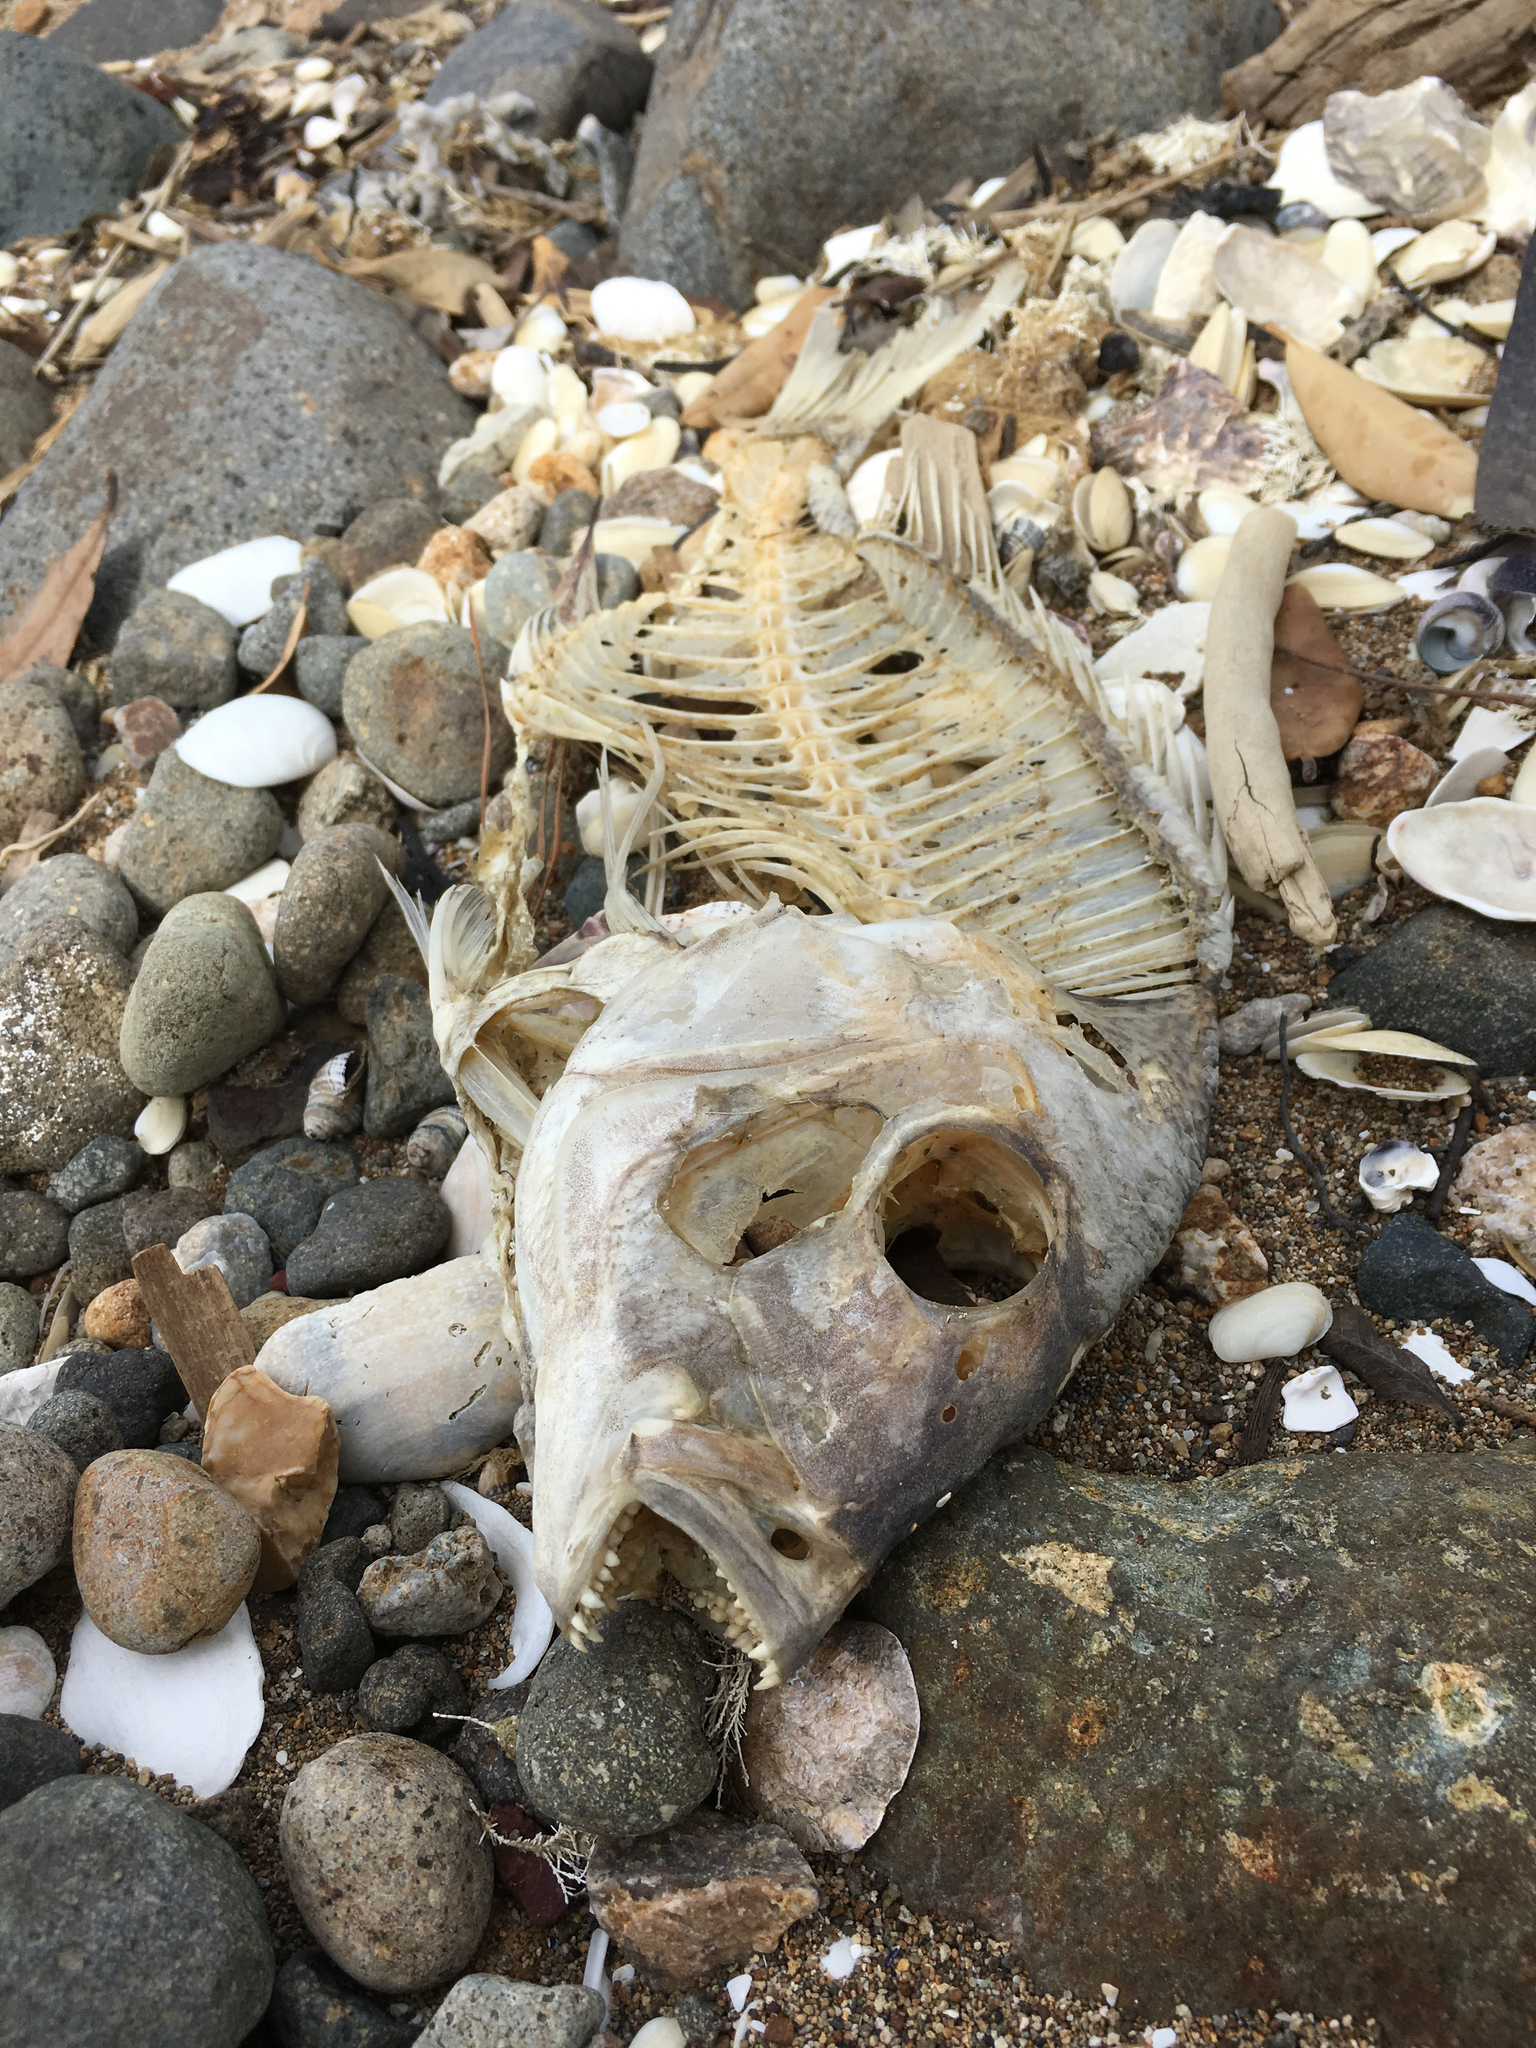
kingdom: Animalia
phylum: Chordata
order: Perciformes
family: Sparidae
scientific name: Sparidae
